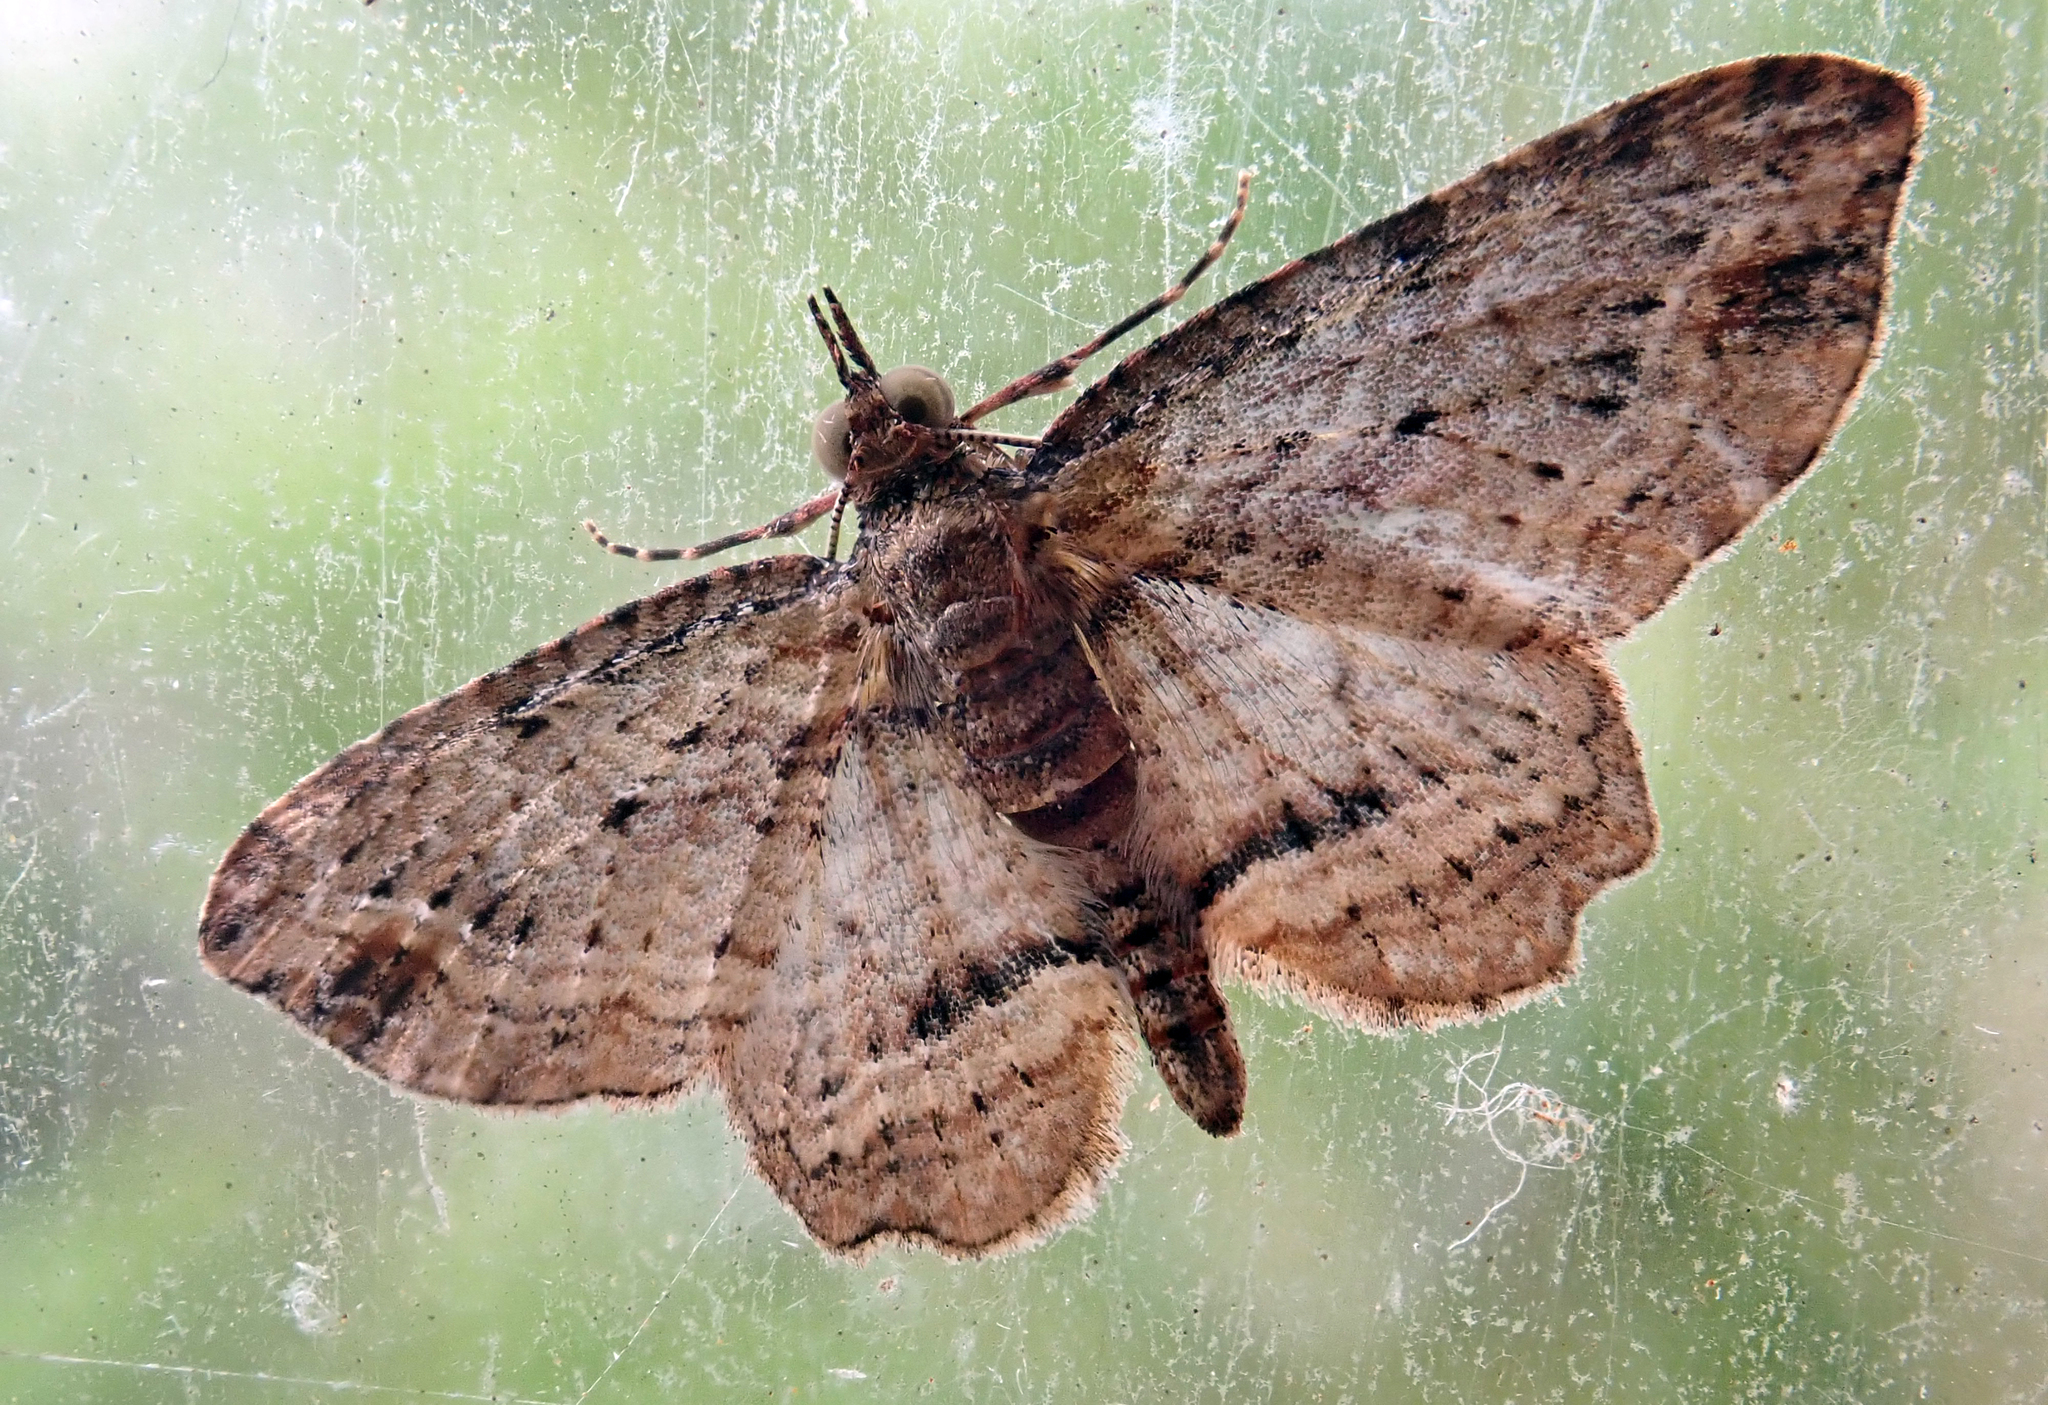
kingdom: Animalia
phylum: Arthropoda
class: Insecta
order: Lepidoptera
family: Geometridae
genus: Idaea
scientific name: Idaea mutanda
